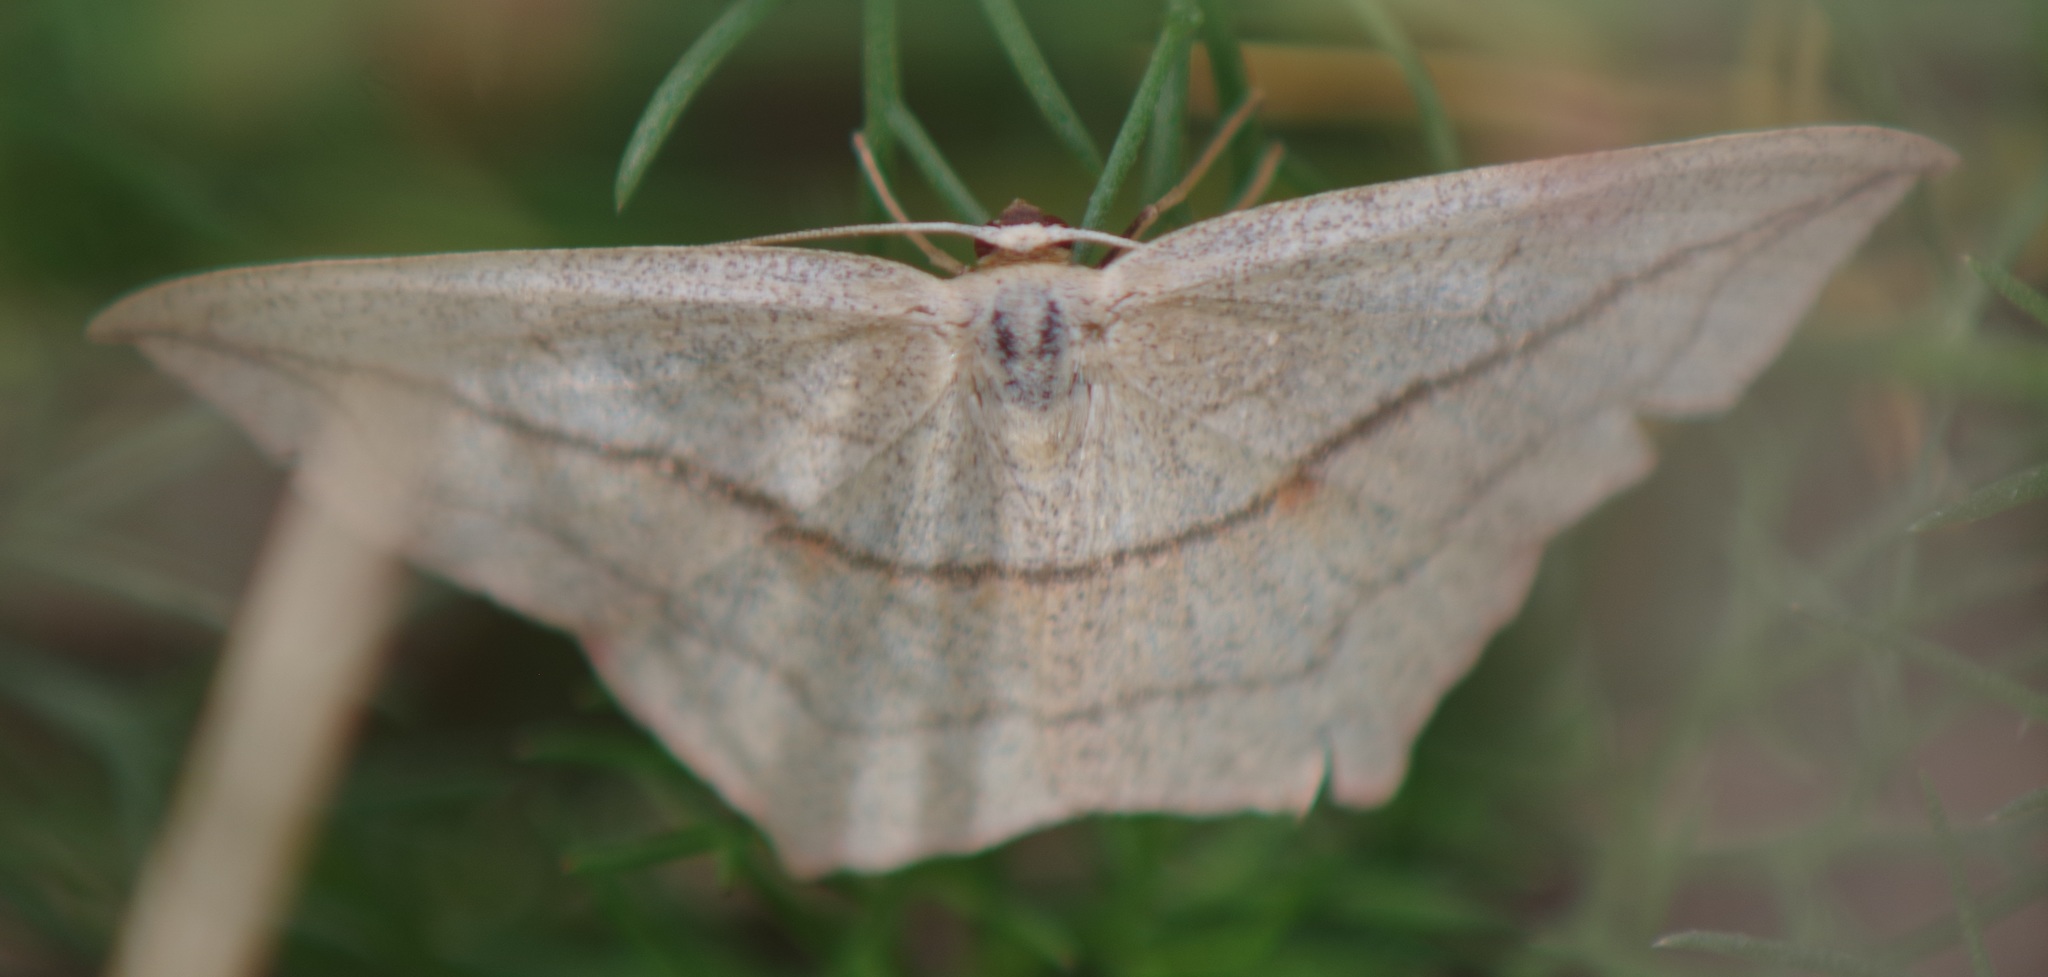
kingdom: Animalia
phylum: Arthropoda
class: Insecta
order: Lepidoptera
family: Geometridae
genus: Timandra
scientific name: Timandra comae
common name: Blood-vein
